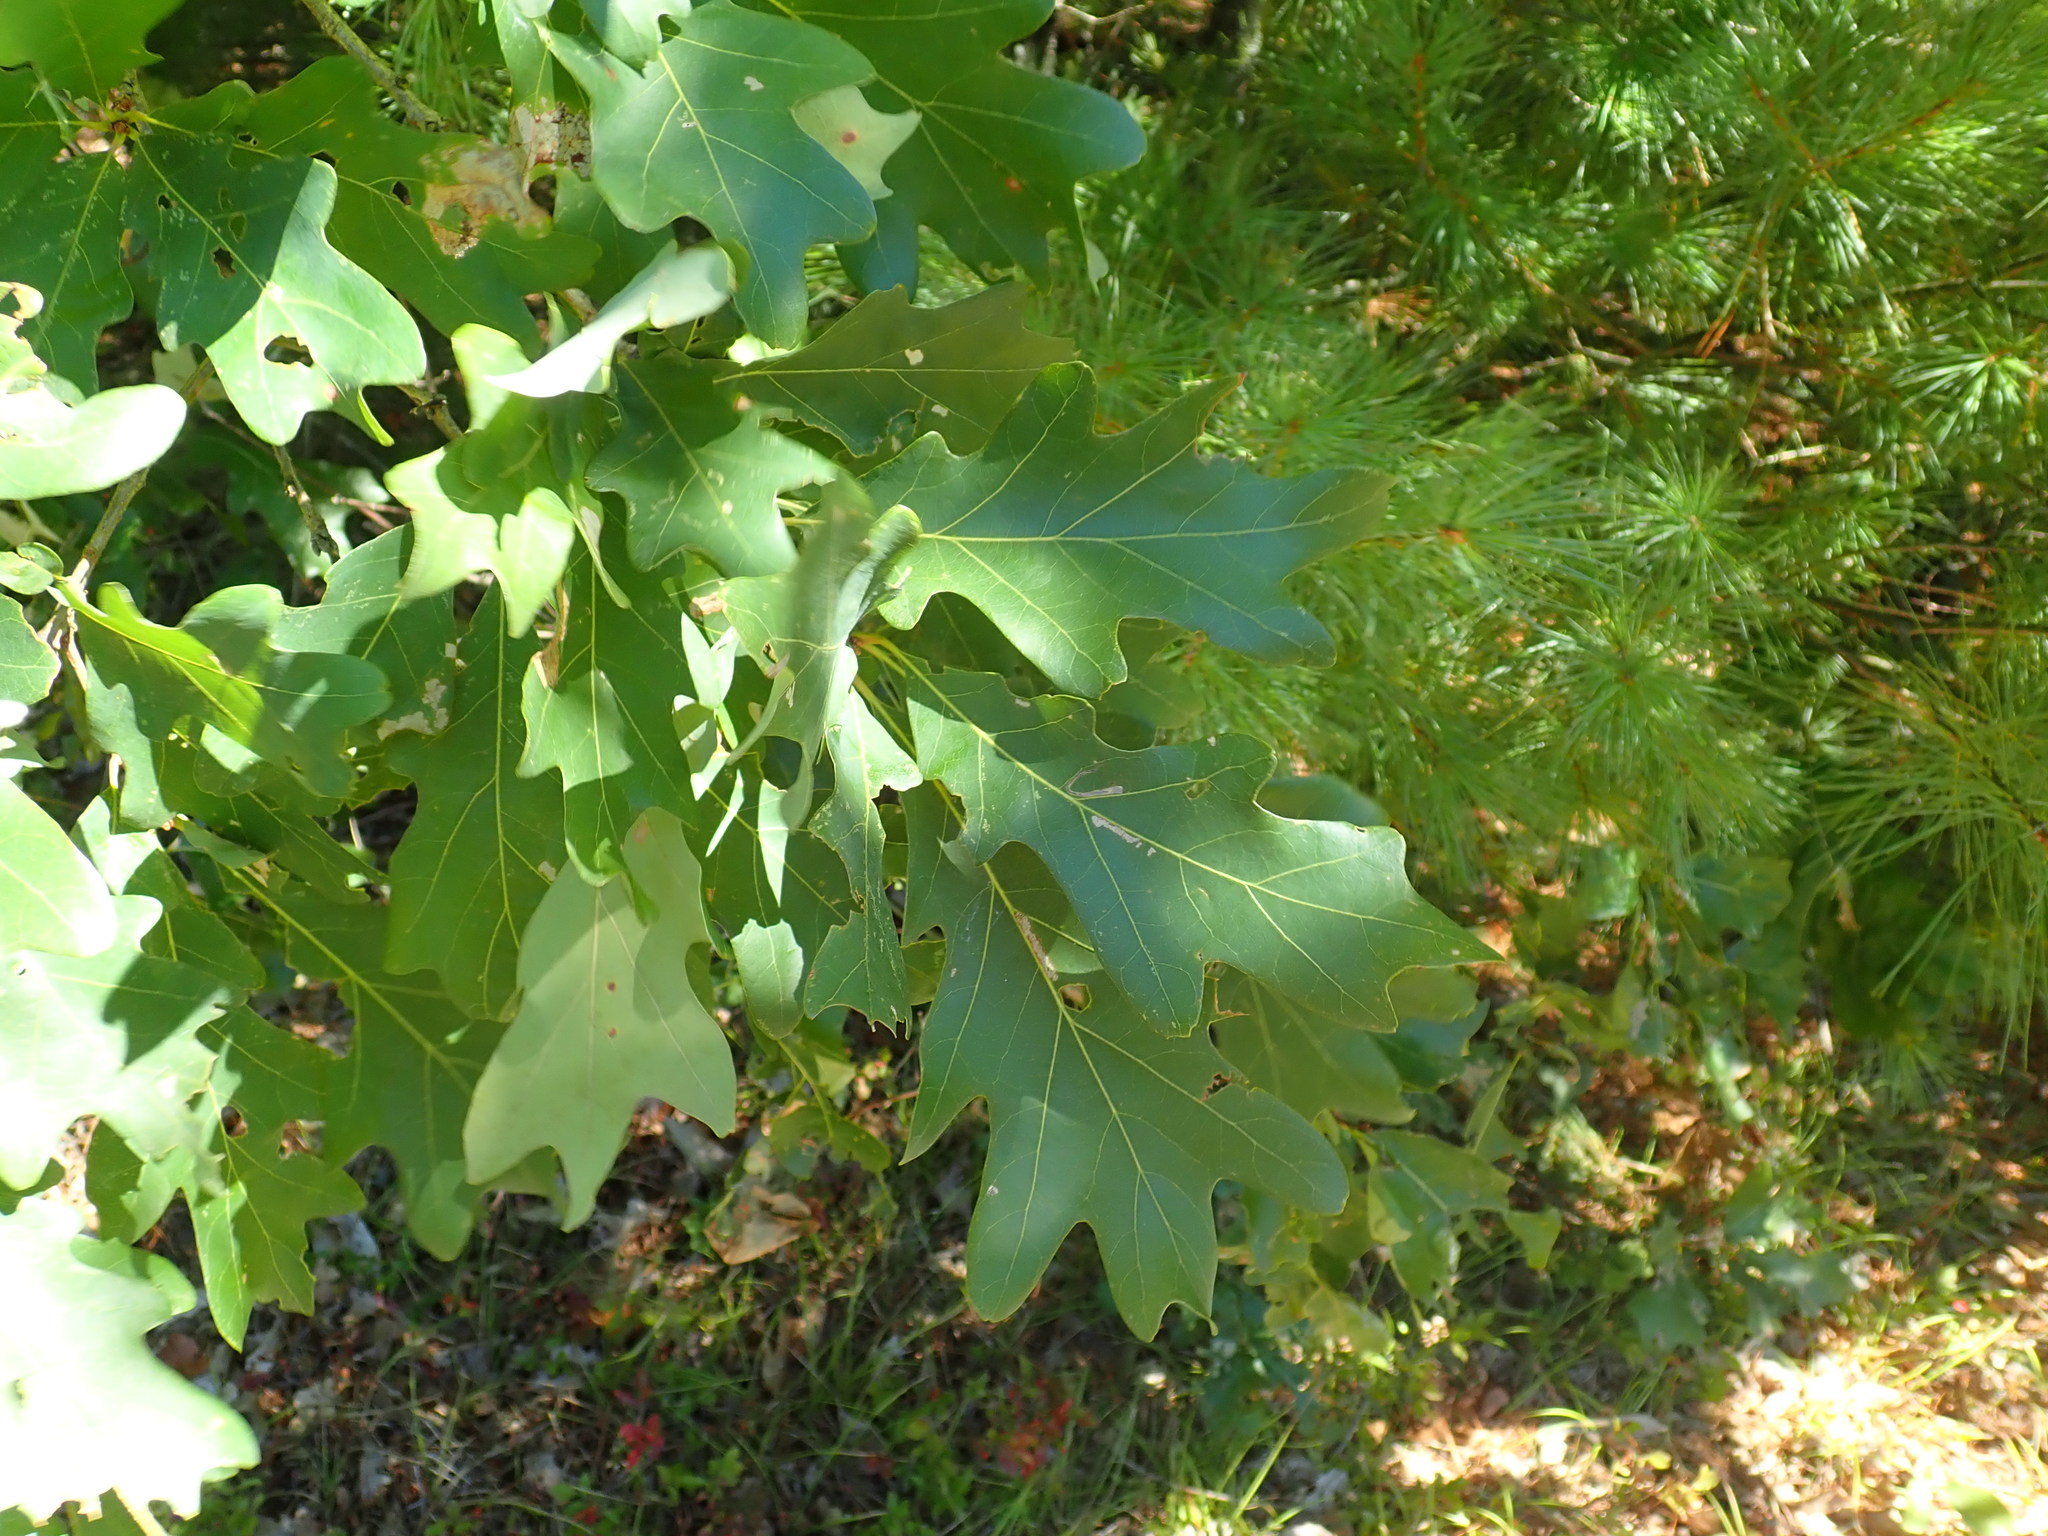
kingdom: Plantae
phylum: Tracheophyta
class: Magnoliopsida
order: Fagales
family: Fagaceae
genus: Quercus
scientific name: Quercus alba
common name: White oak
